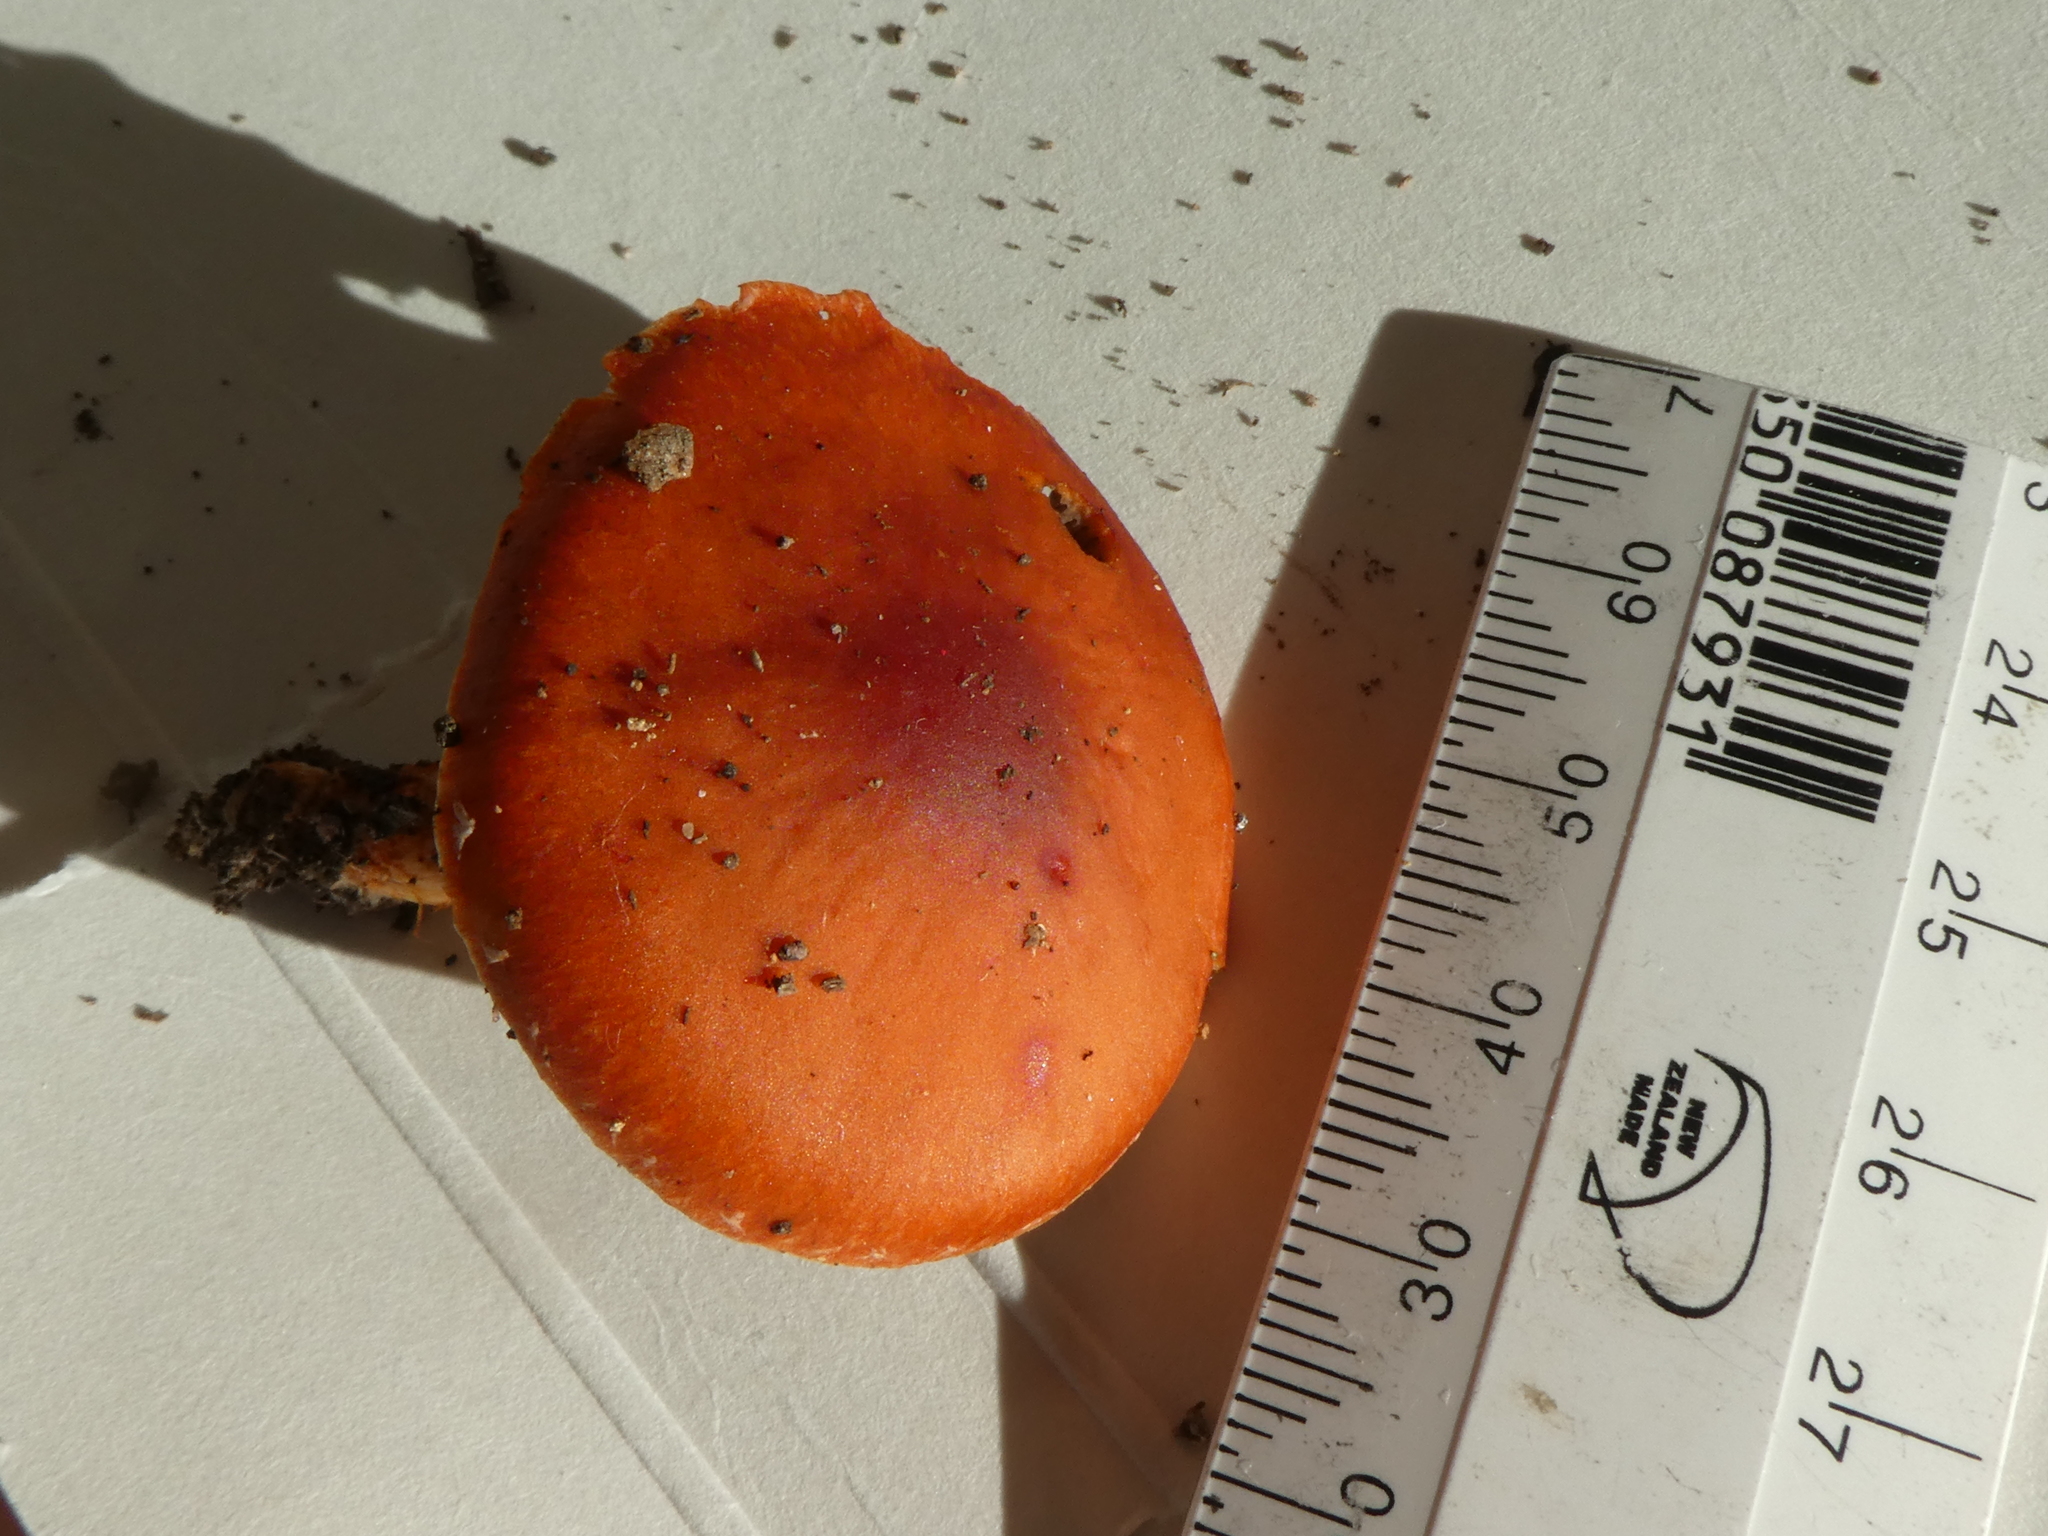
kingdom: Fungi
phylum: Basidiomycota
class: Agaricomycetes
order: Agaricales
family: Strophariaceae
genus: Leratiomyces
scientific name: Leratiomyces ceres
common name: Redlead roundhead
